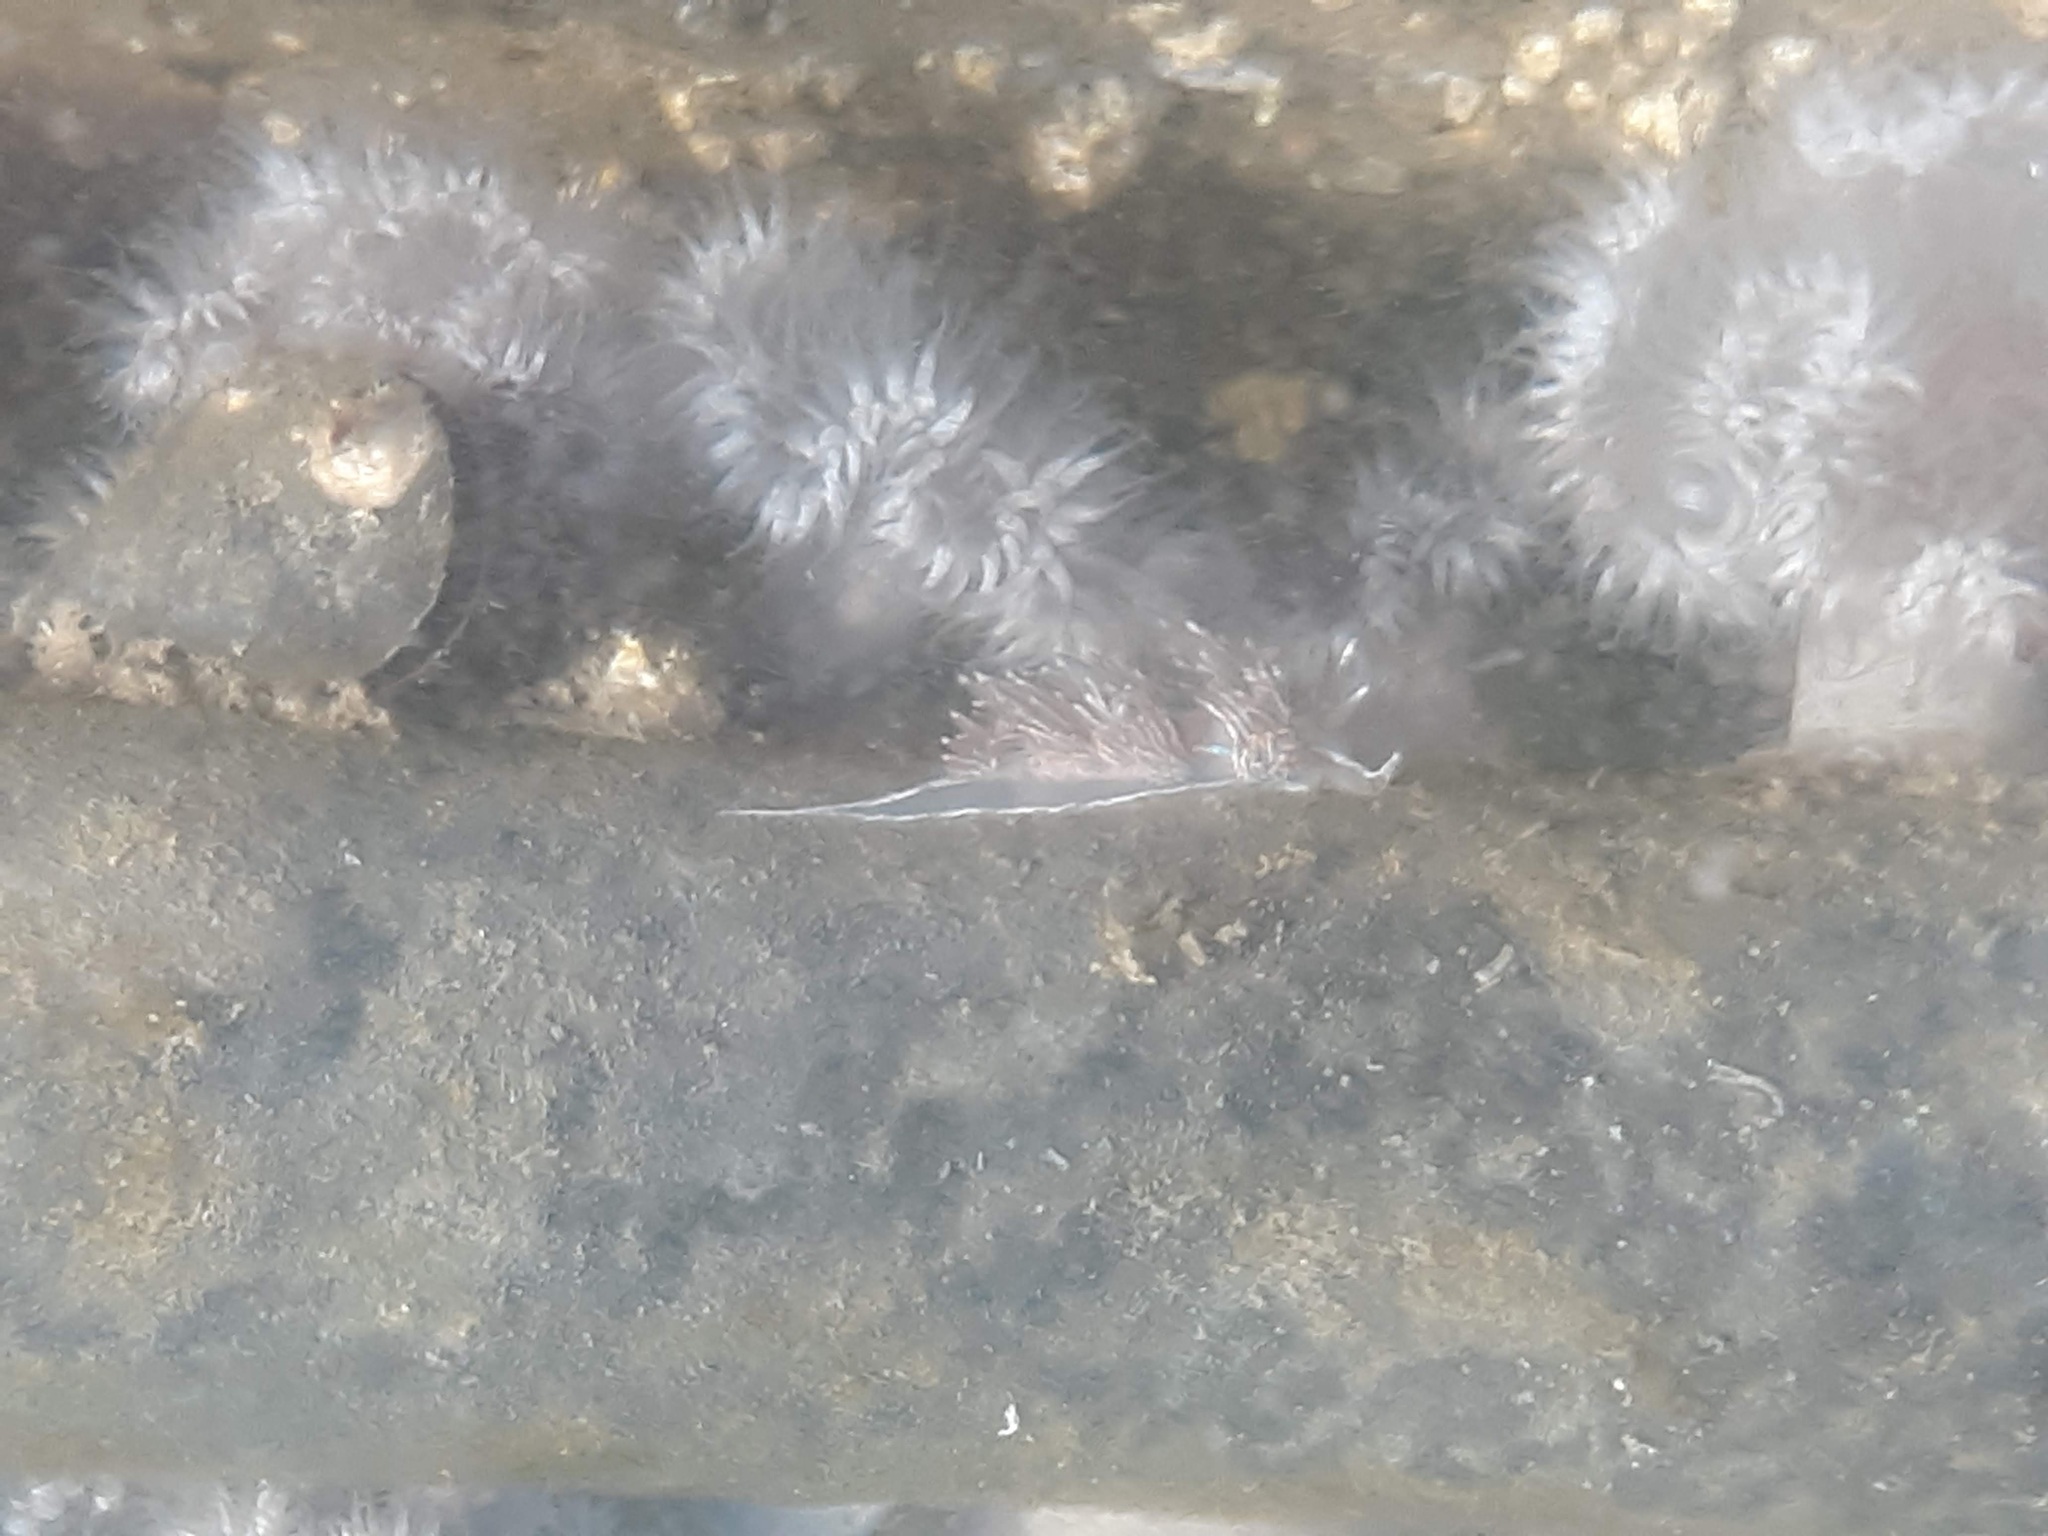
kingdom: Animalia
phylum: Mollusca
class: Gastropoda
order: Nudibranchia
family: Myrrhinidae
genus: Hermissenda
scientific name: Hermissenda crassicornis
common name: Hermissenda
